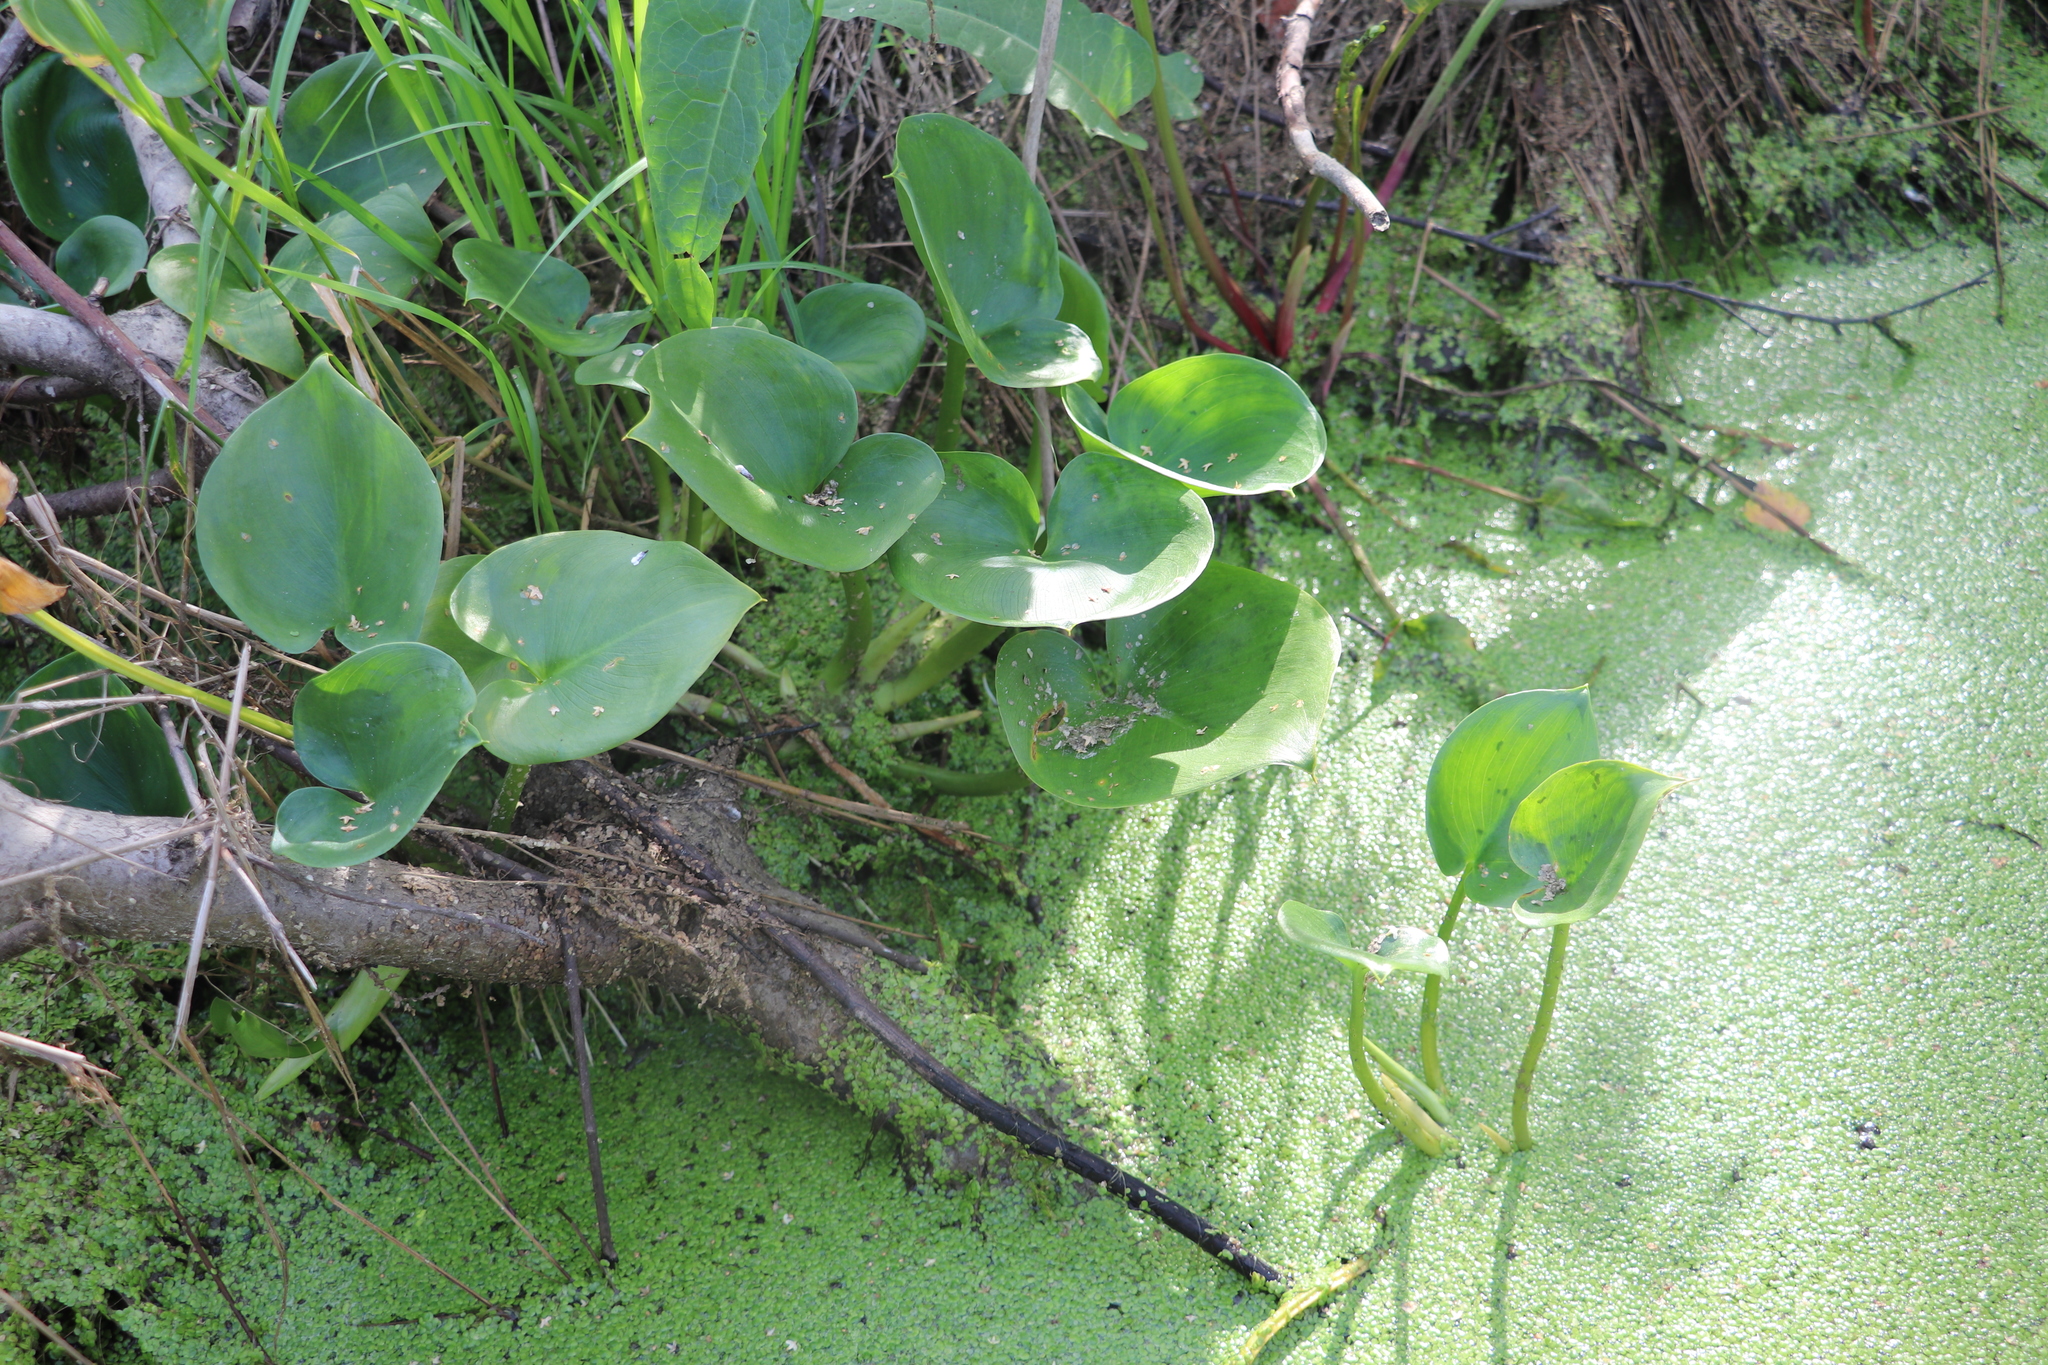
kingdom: Plantae
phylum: Tracheophyta
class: Liliopsida
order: Alismatales
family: Araceae
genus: Calla
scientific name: Calla palustris
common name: Bog arum
